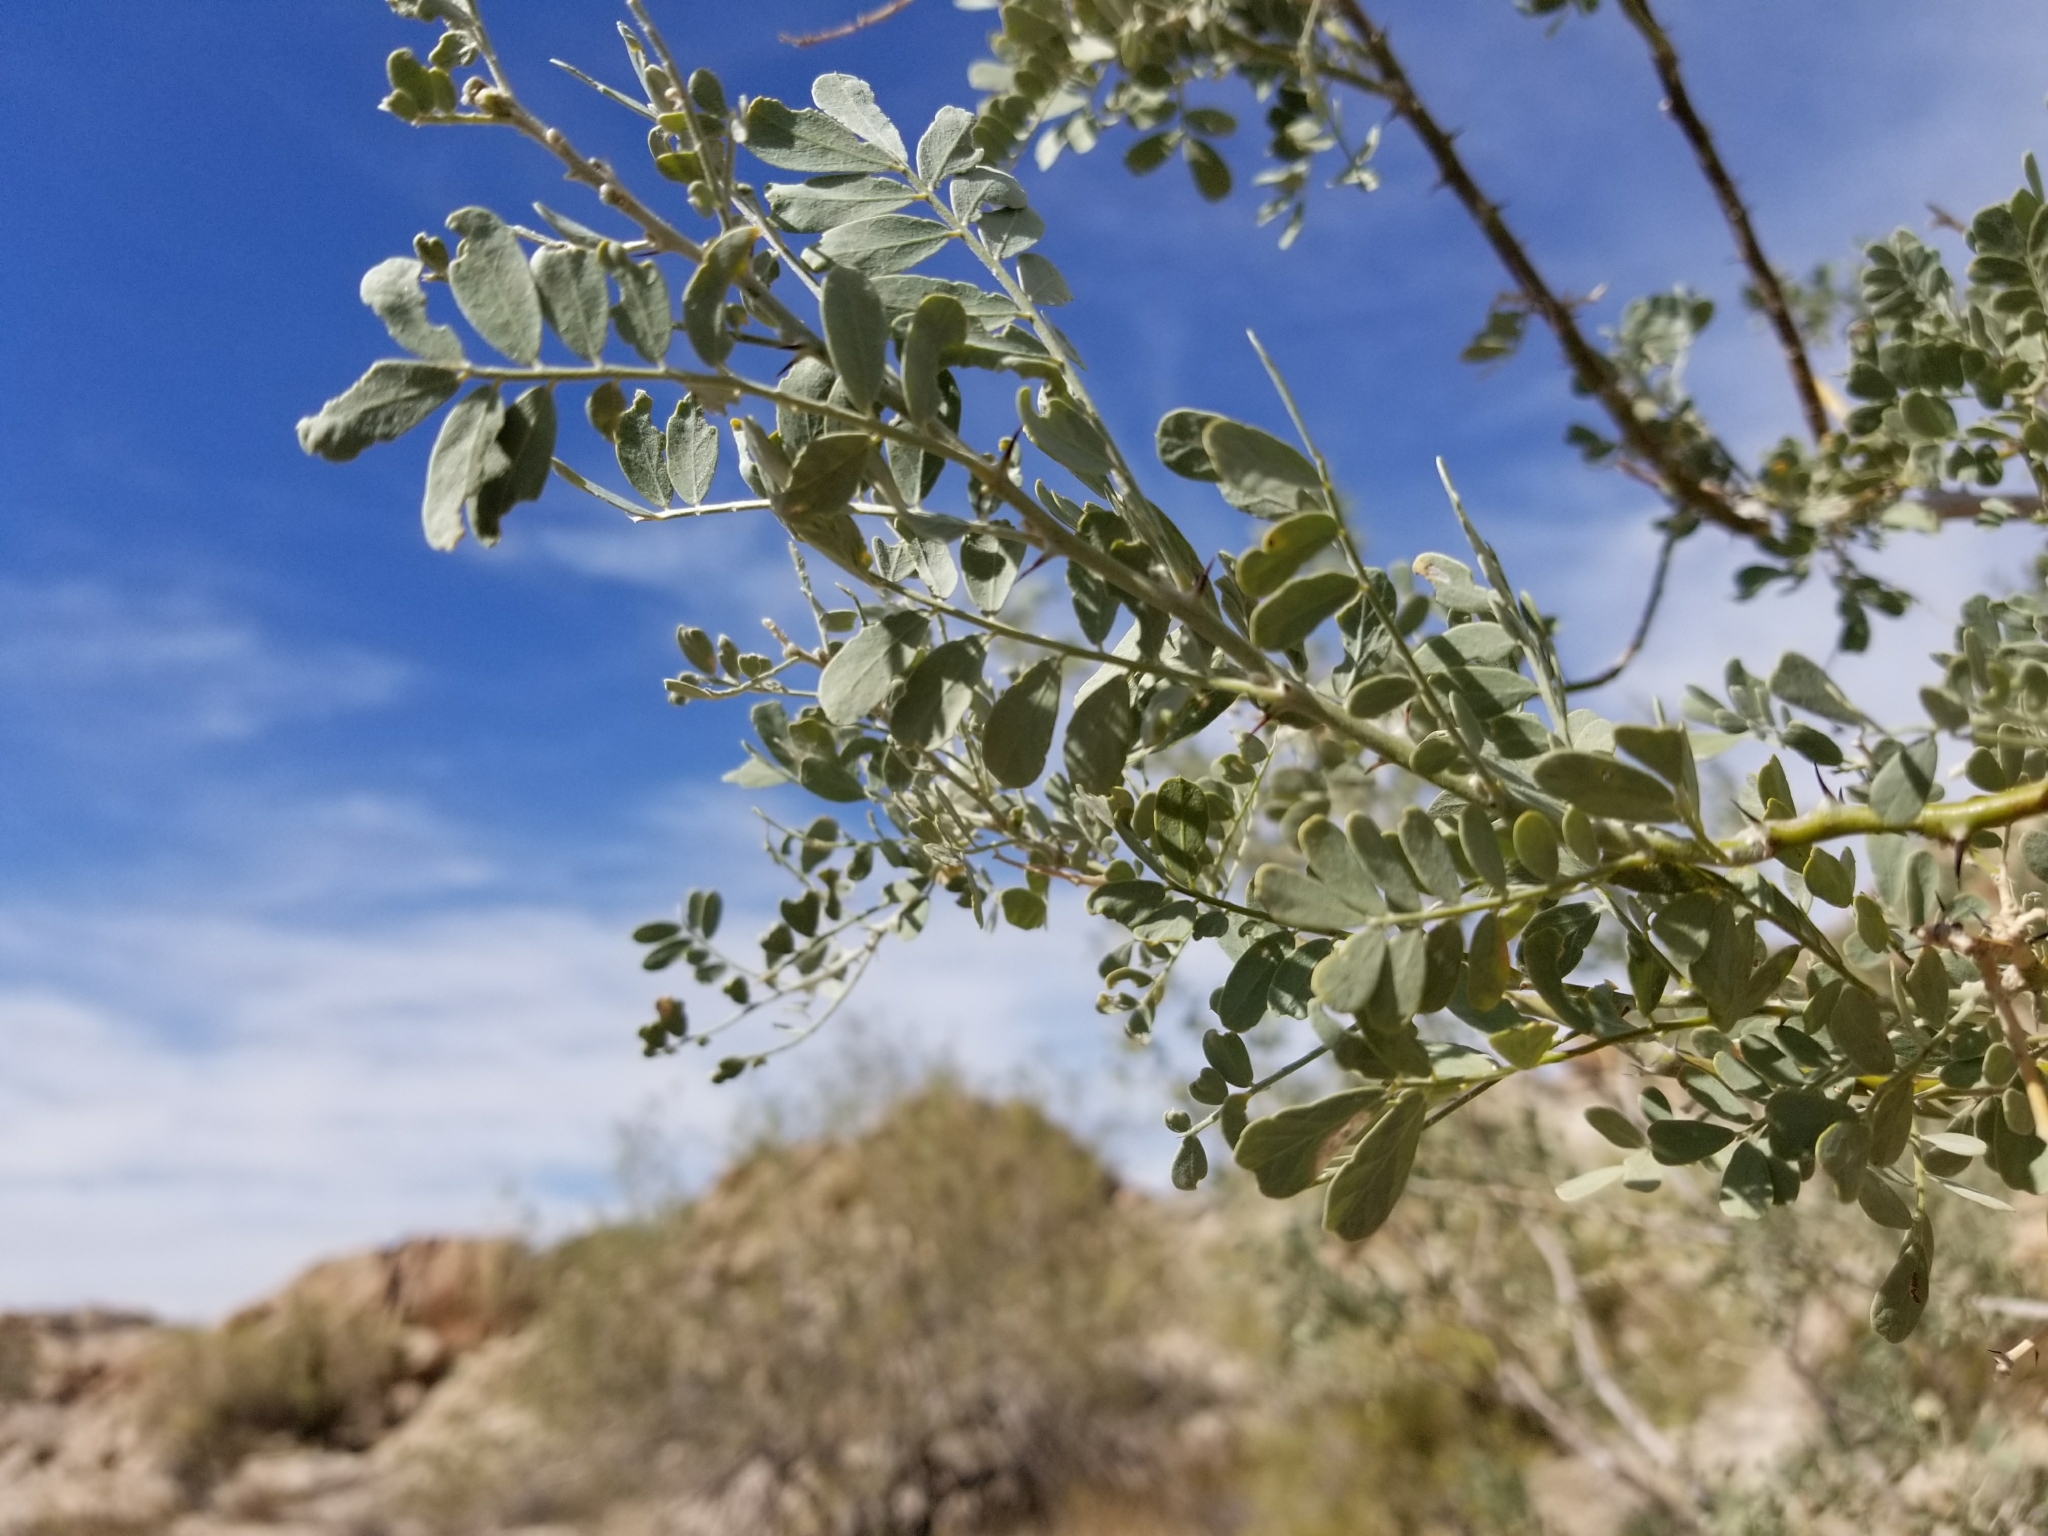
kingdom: Plantae
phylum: Tracheophyta
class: Magnoliopsida
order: Fabales
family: Fabaceae
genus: Olneya
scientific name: Olneya tesota
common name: Desert ironwood
